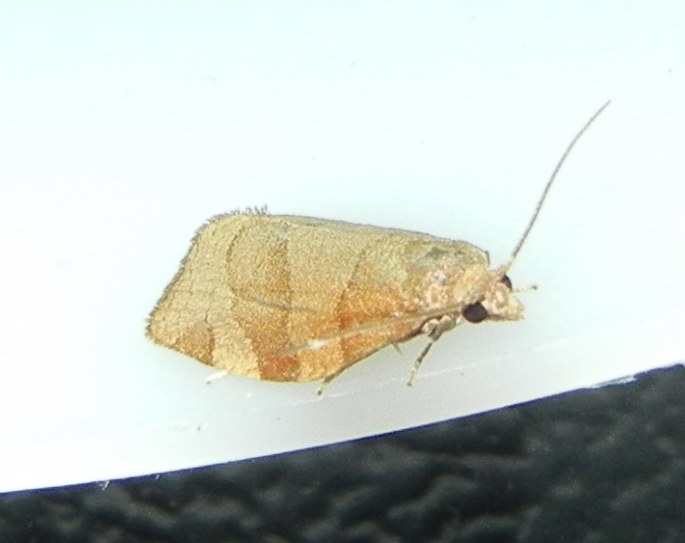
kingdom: Animalia
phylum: Arthropoda
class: Insecta
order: Lepidoptera
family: Tortricidae
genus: Pandemis
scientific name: Pandemis cerasana
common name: Barred fruit-tree tortrix
